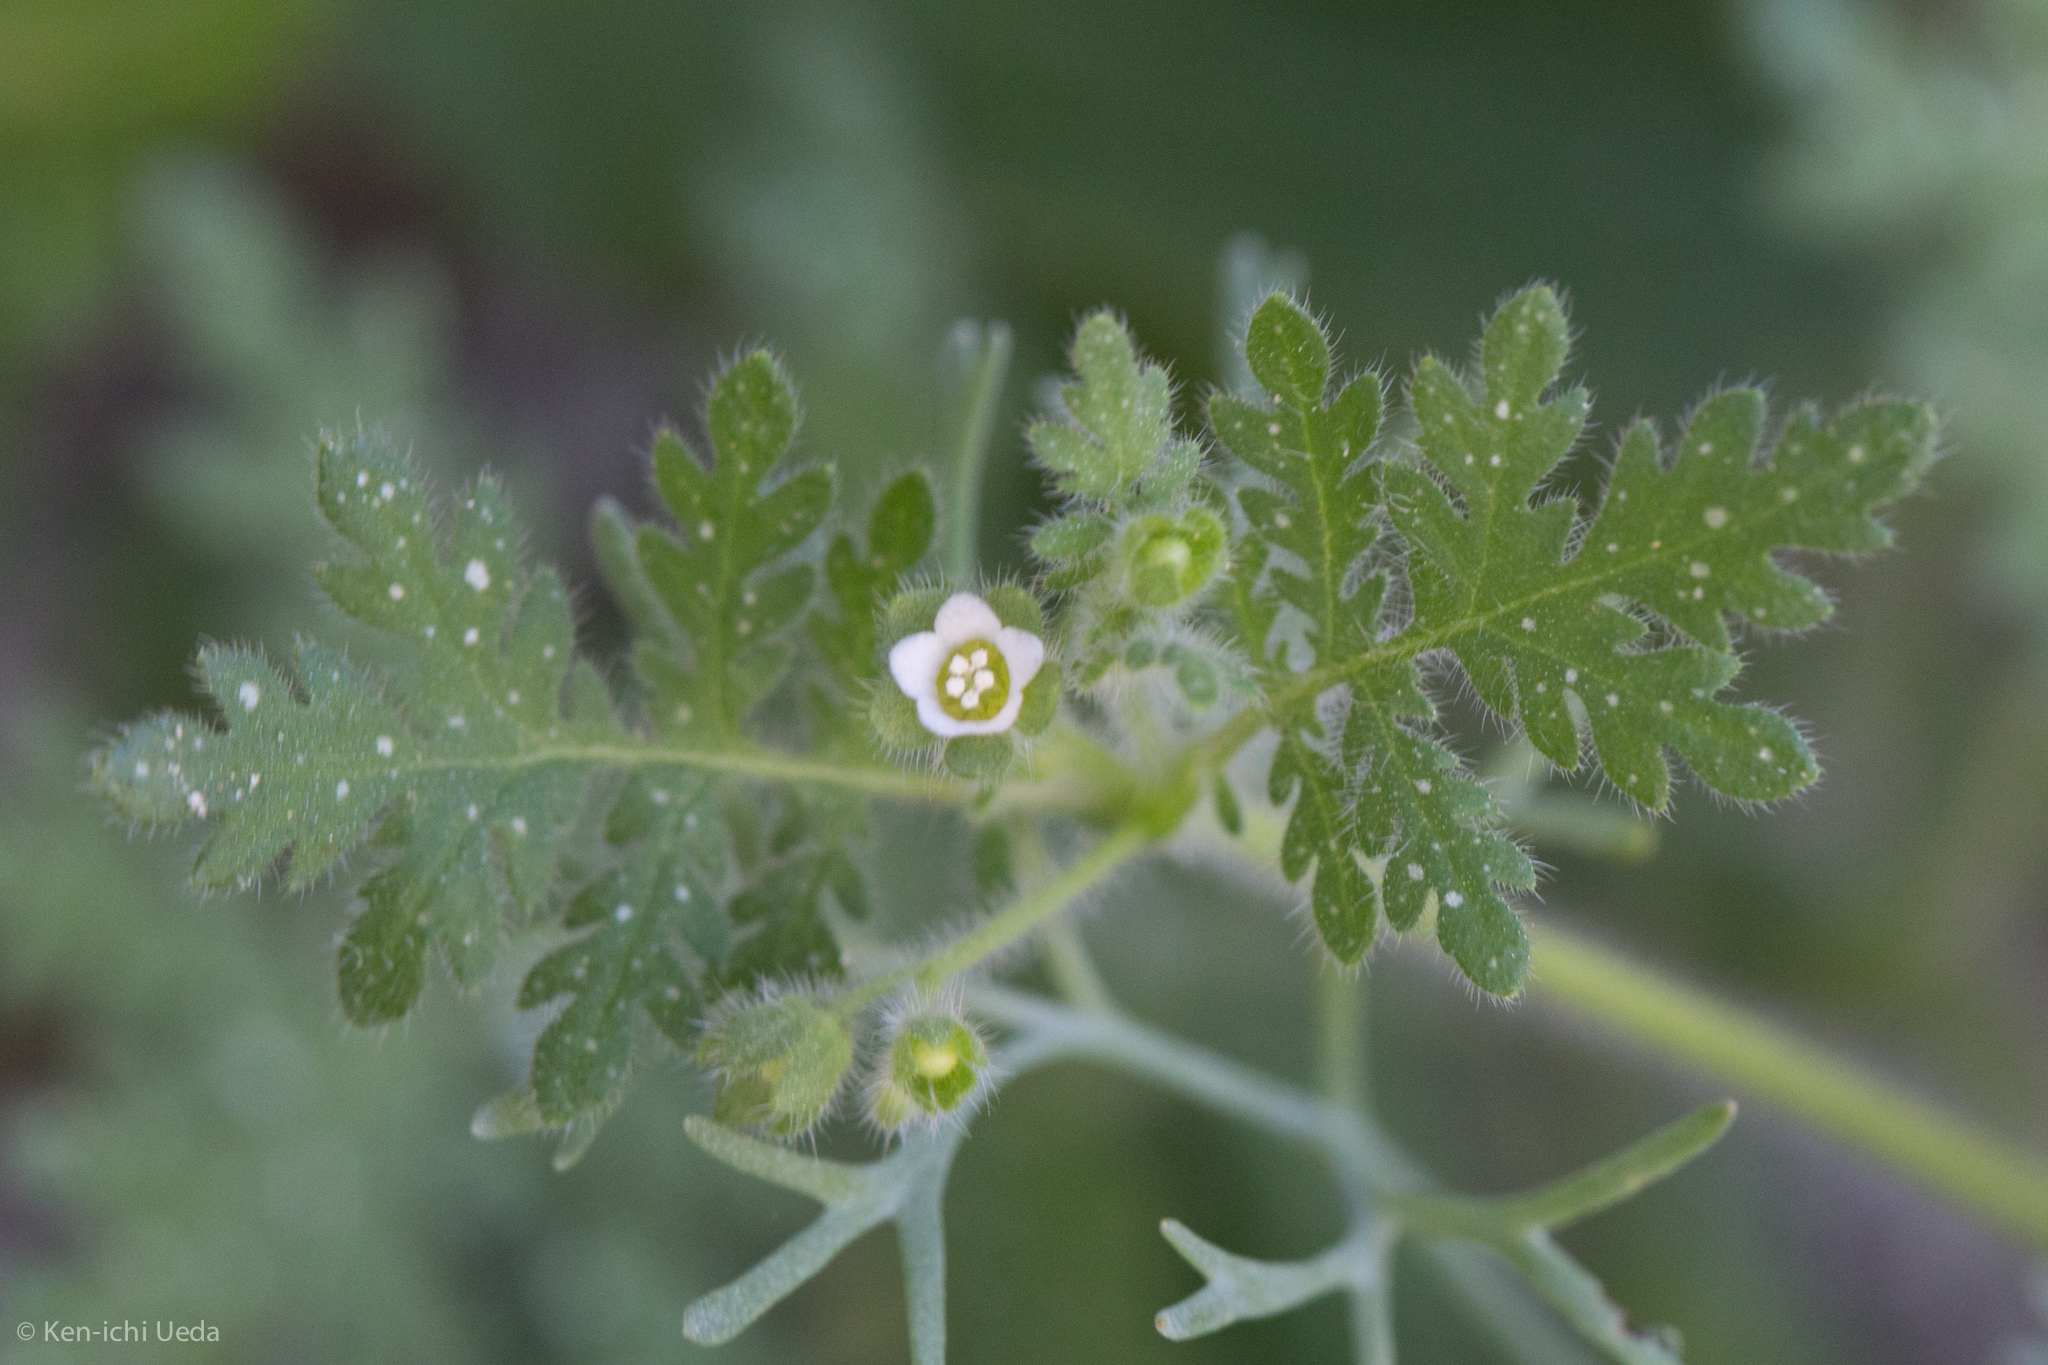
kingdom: Plantae
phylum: Tracheophyta
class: Magnoliopsida
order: Boraginales
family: Hydrophyllaceae
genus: Eucrypta
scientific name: Eucrypta chrysanthemifolia
